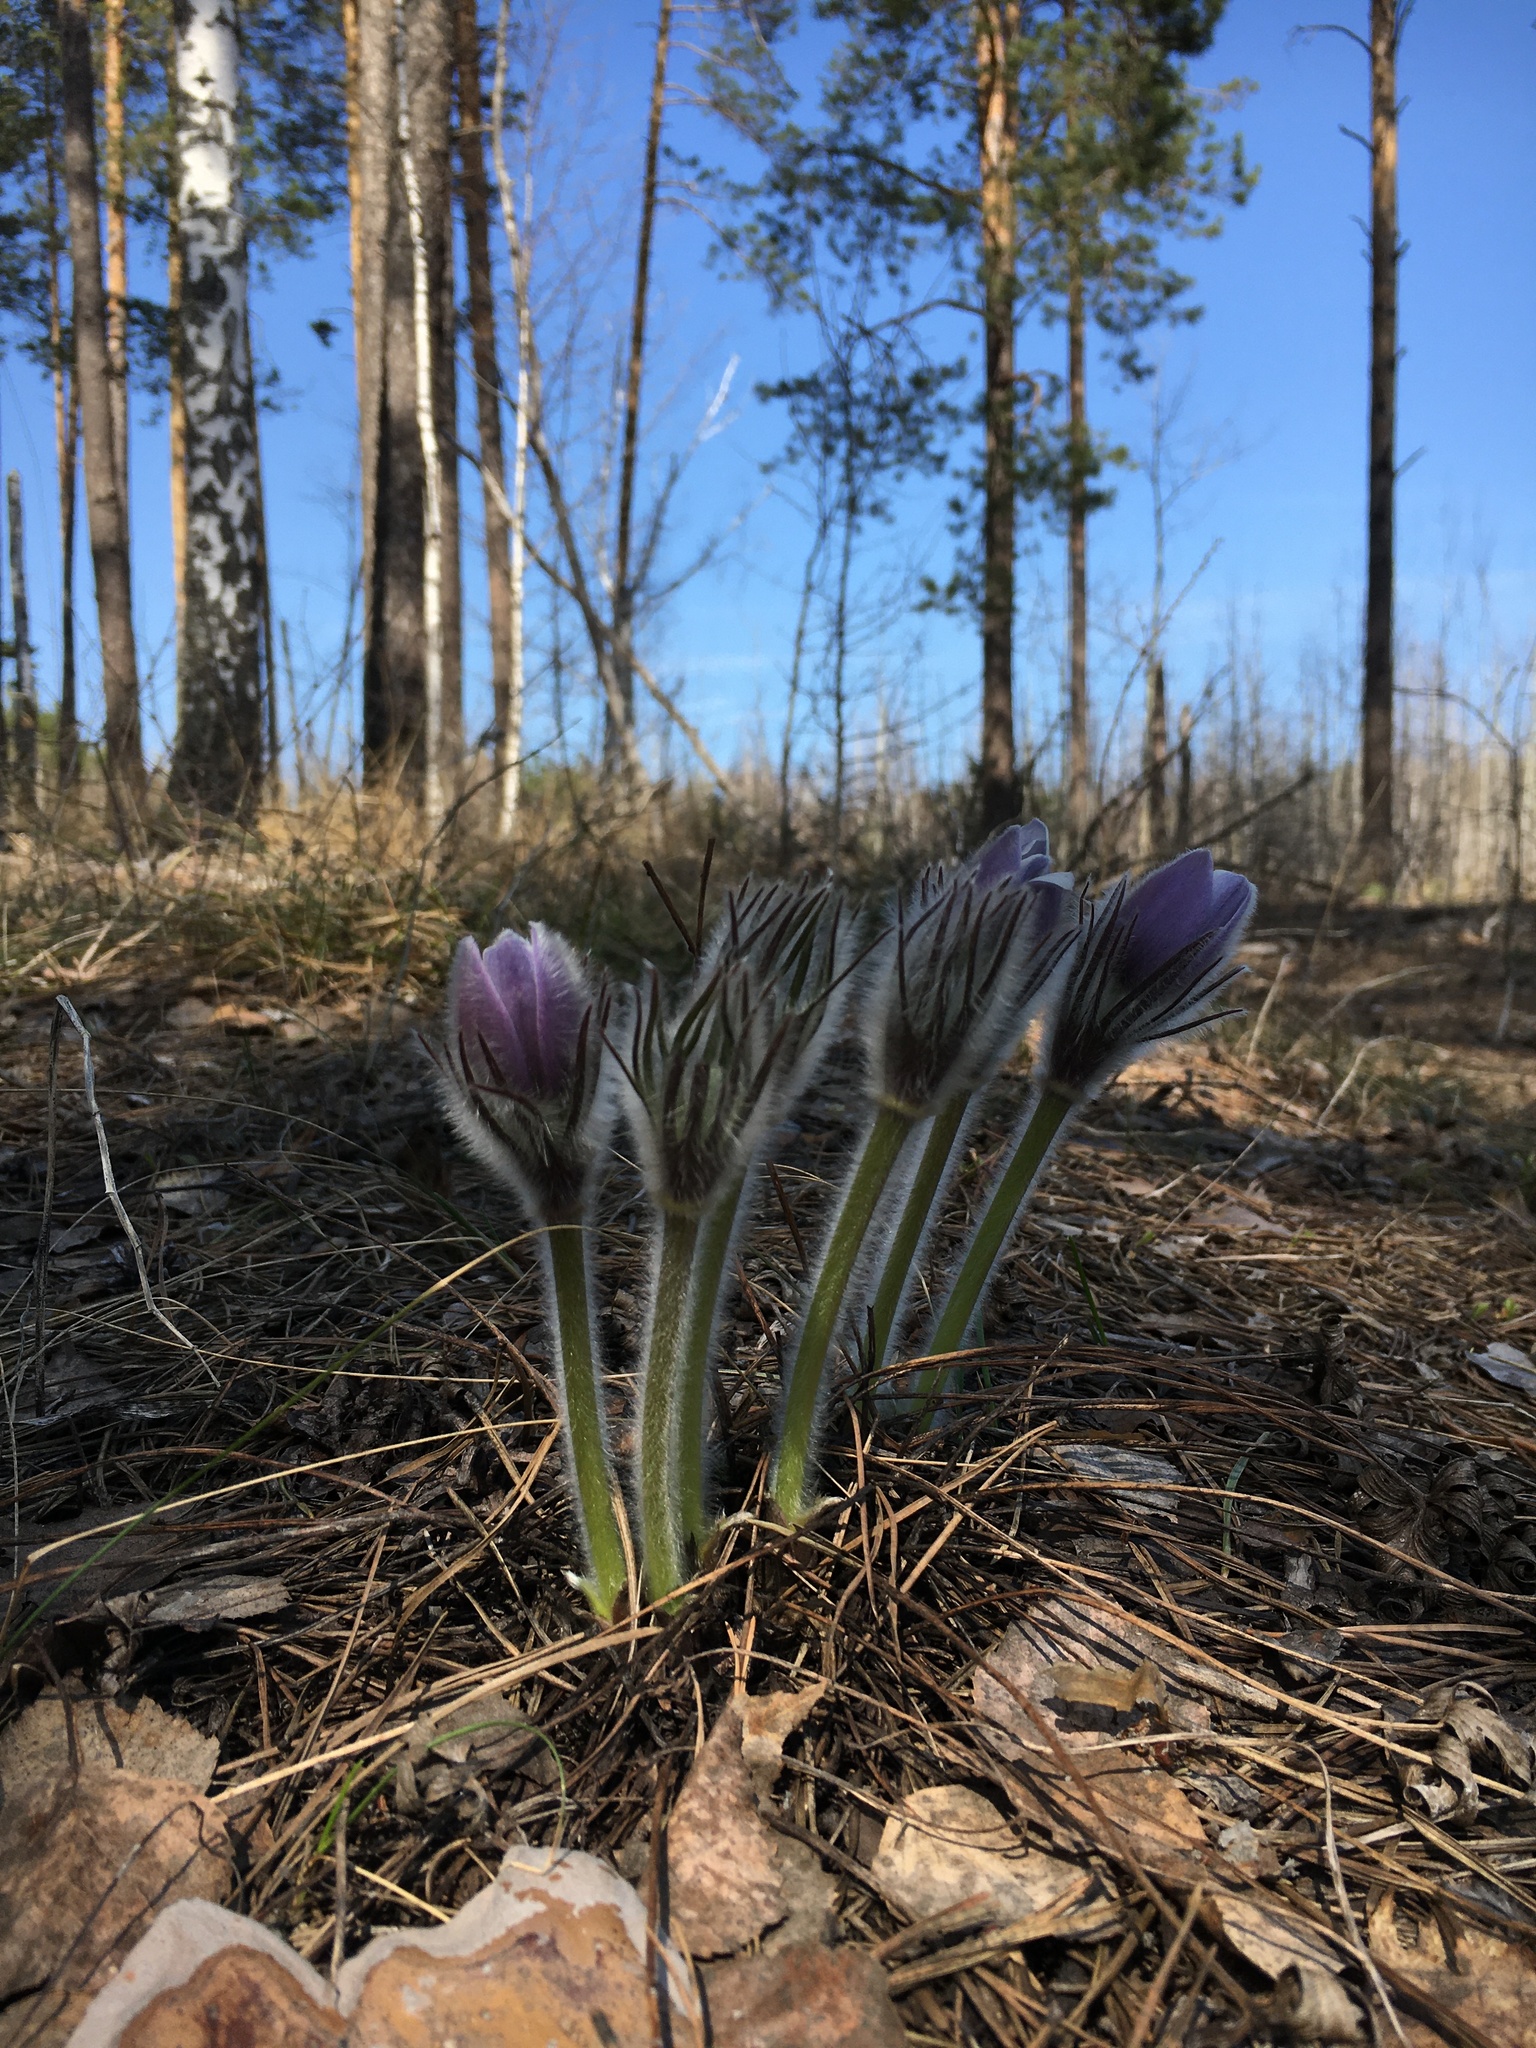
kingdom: Plantae
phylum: Tracheophyta
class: Magnoliopsida
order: Ranunculales
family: Ranunculaceae
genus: Pulsatilla
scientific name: Pulsatilla patens
